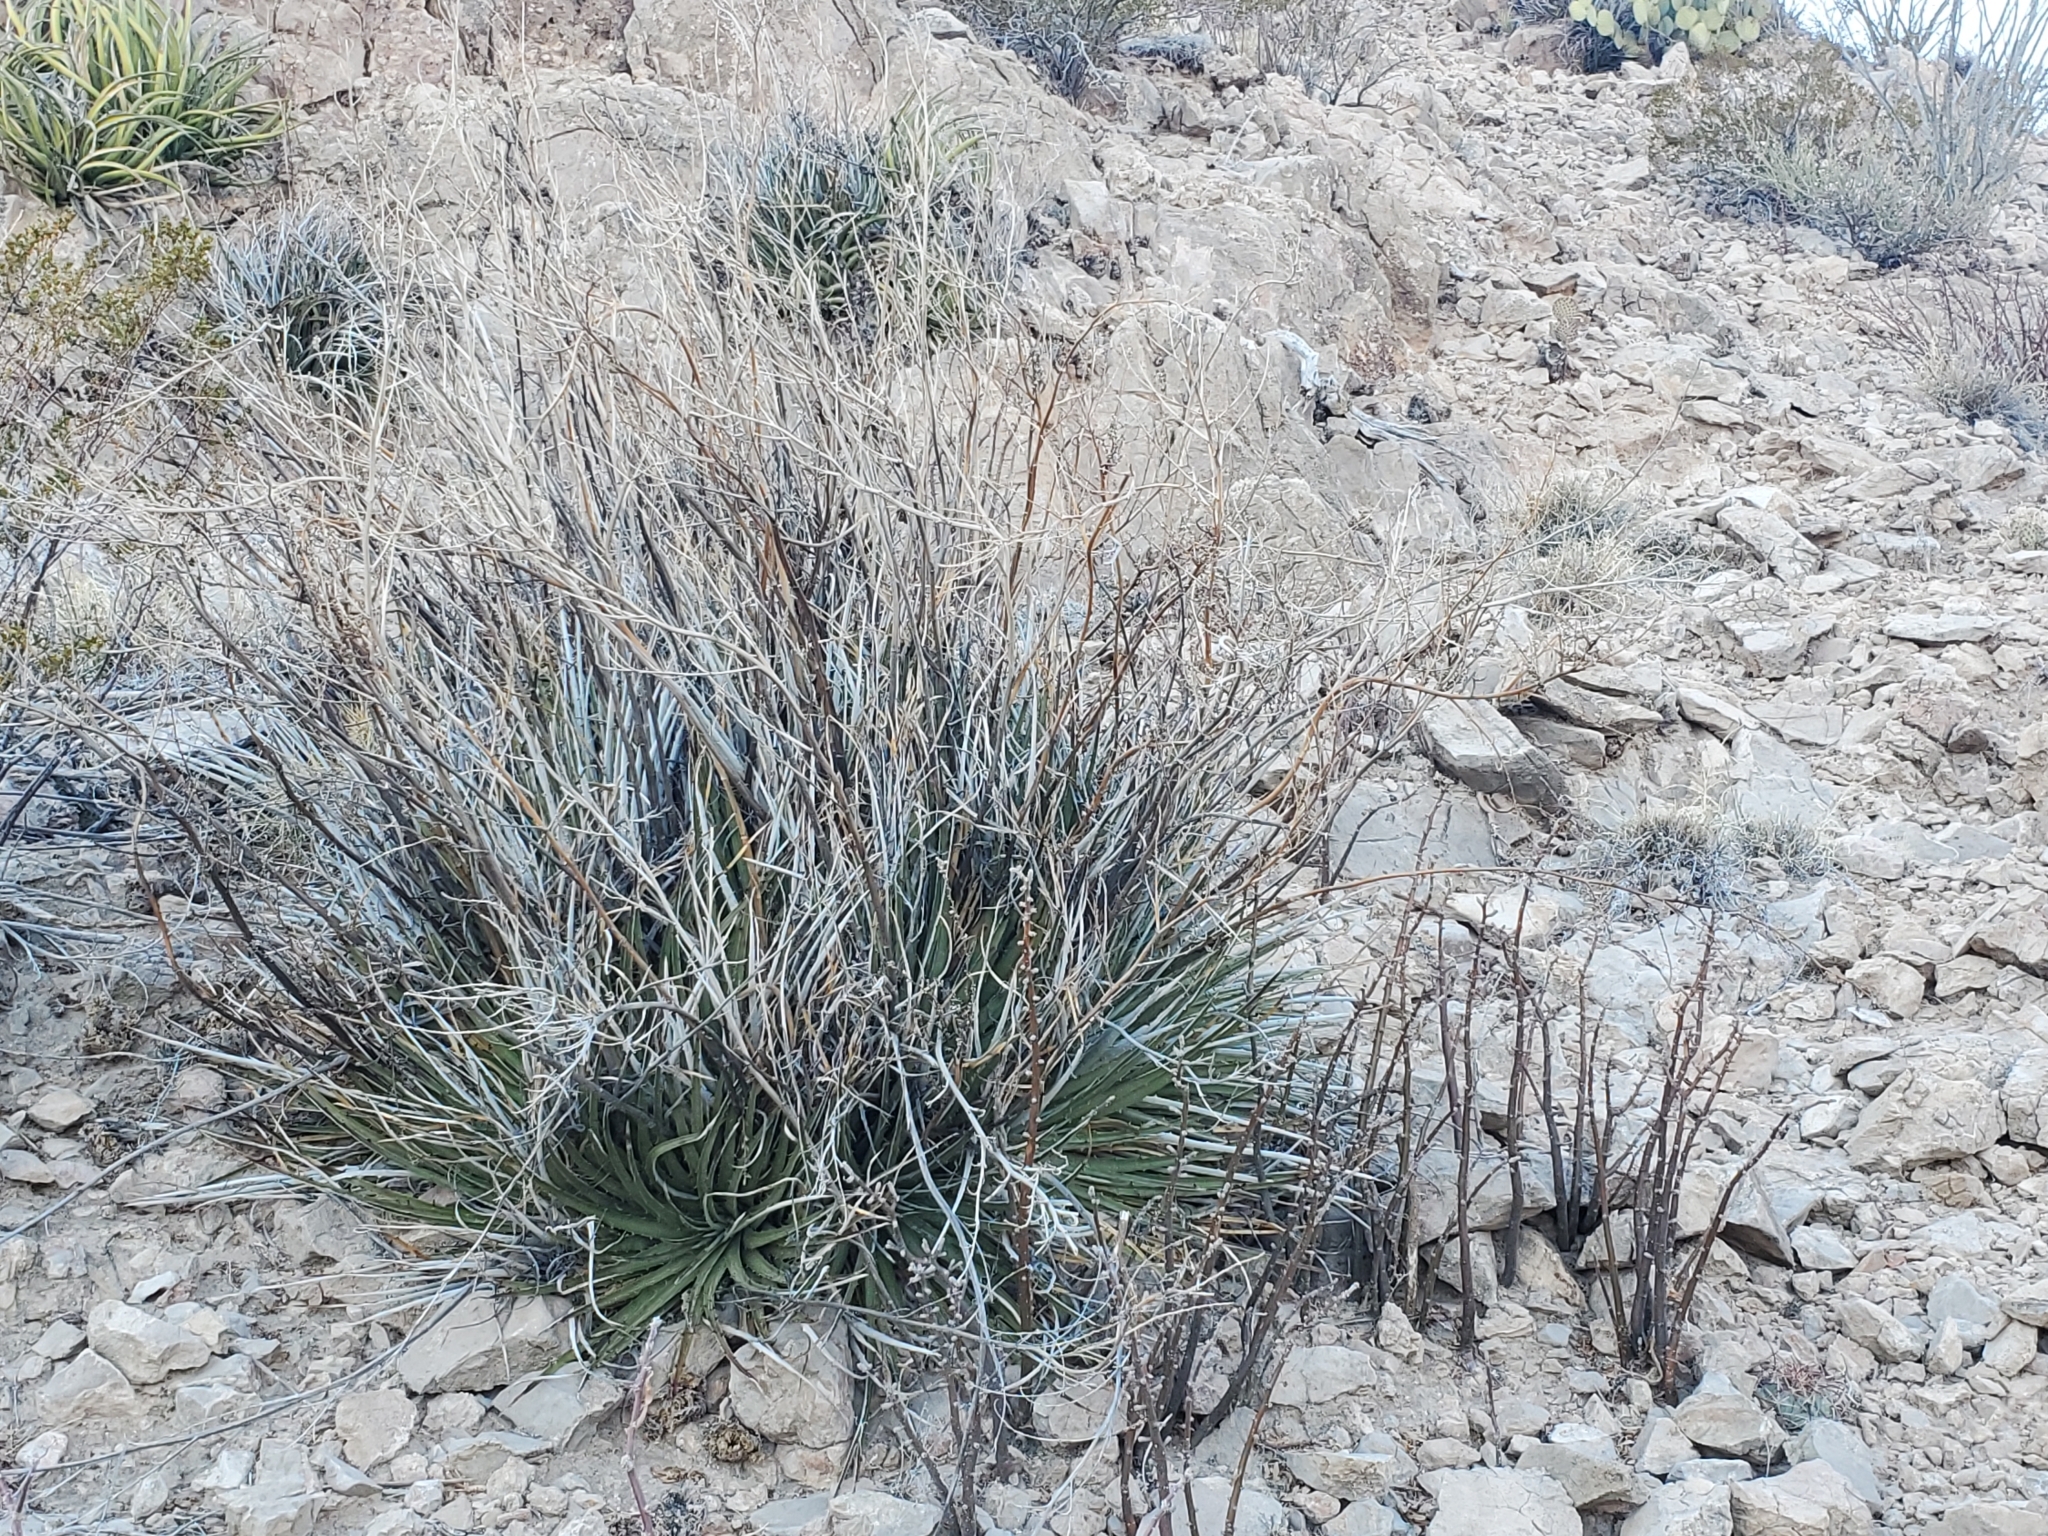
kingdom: Plantae
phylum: Tracheophyta
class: Liliopsida
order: Poales
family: Bromeliaceae
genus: Hechtia
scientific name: Hechtia texensis
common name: False agave
